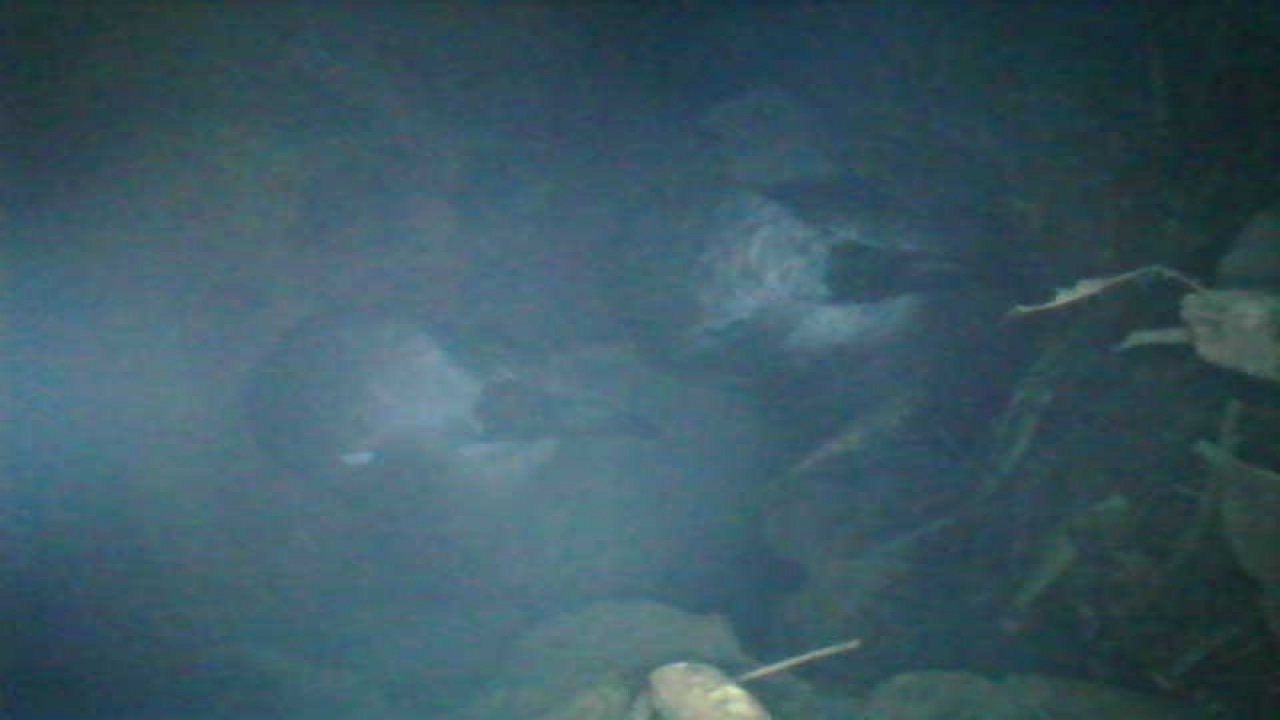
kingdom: Animalia
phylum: Chordata
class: Aves
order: Procellariiformes
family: Procellariidae
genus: Pterodroma
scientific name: Pterodroma macroptera
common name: Great-winged petrel
